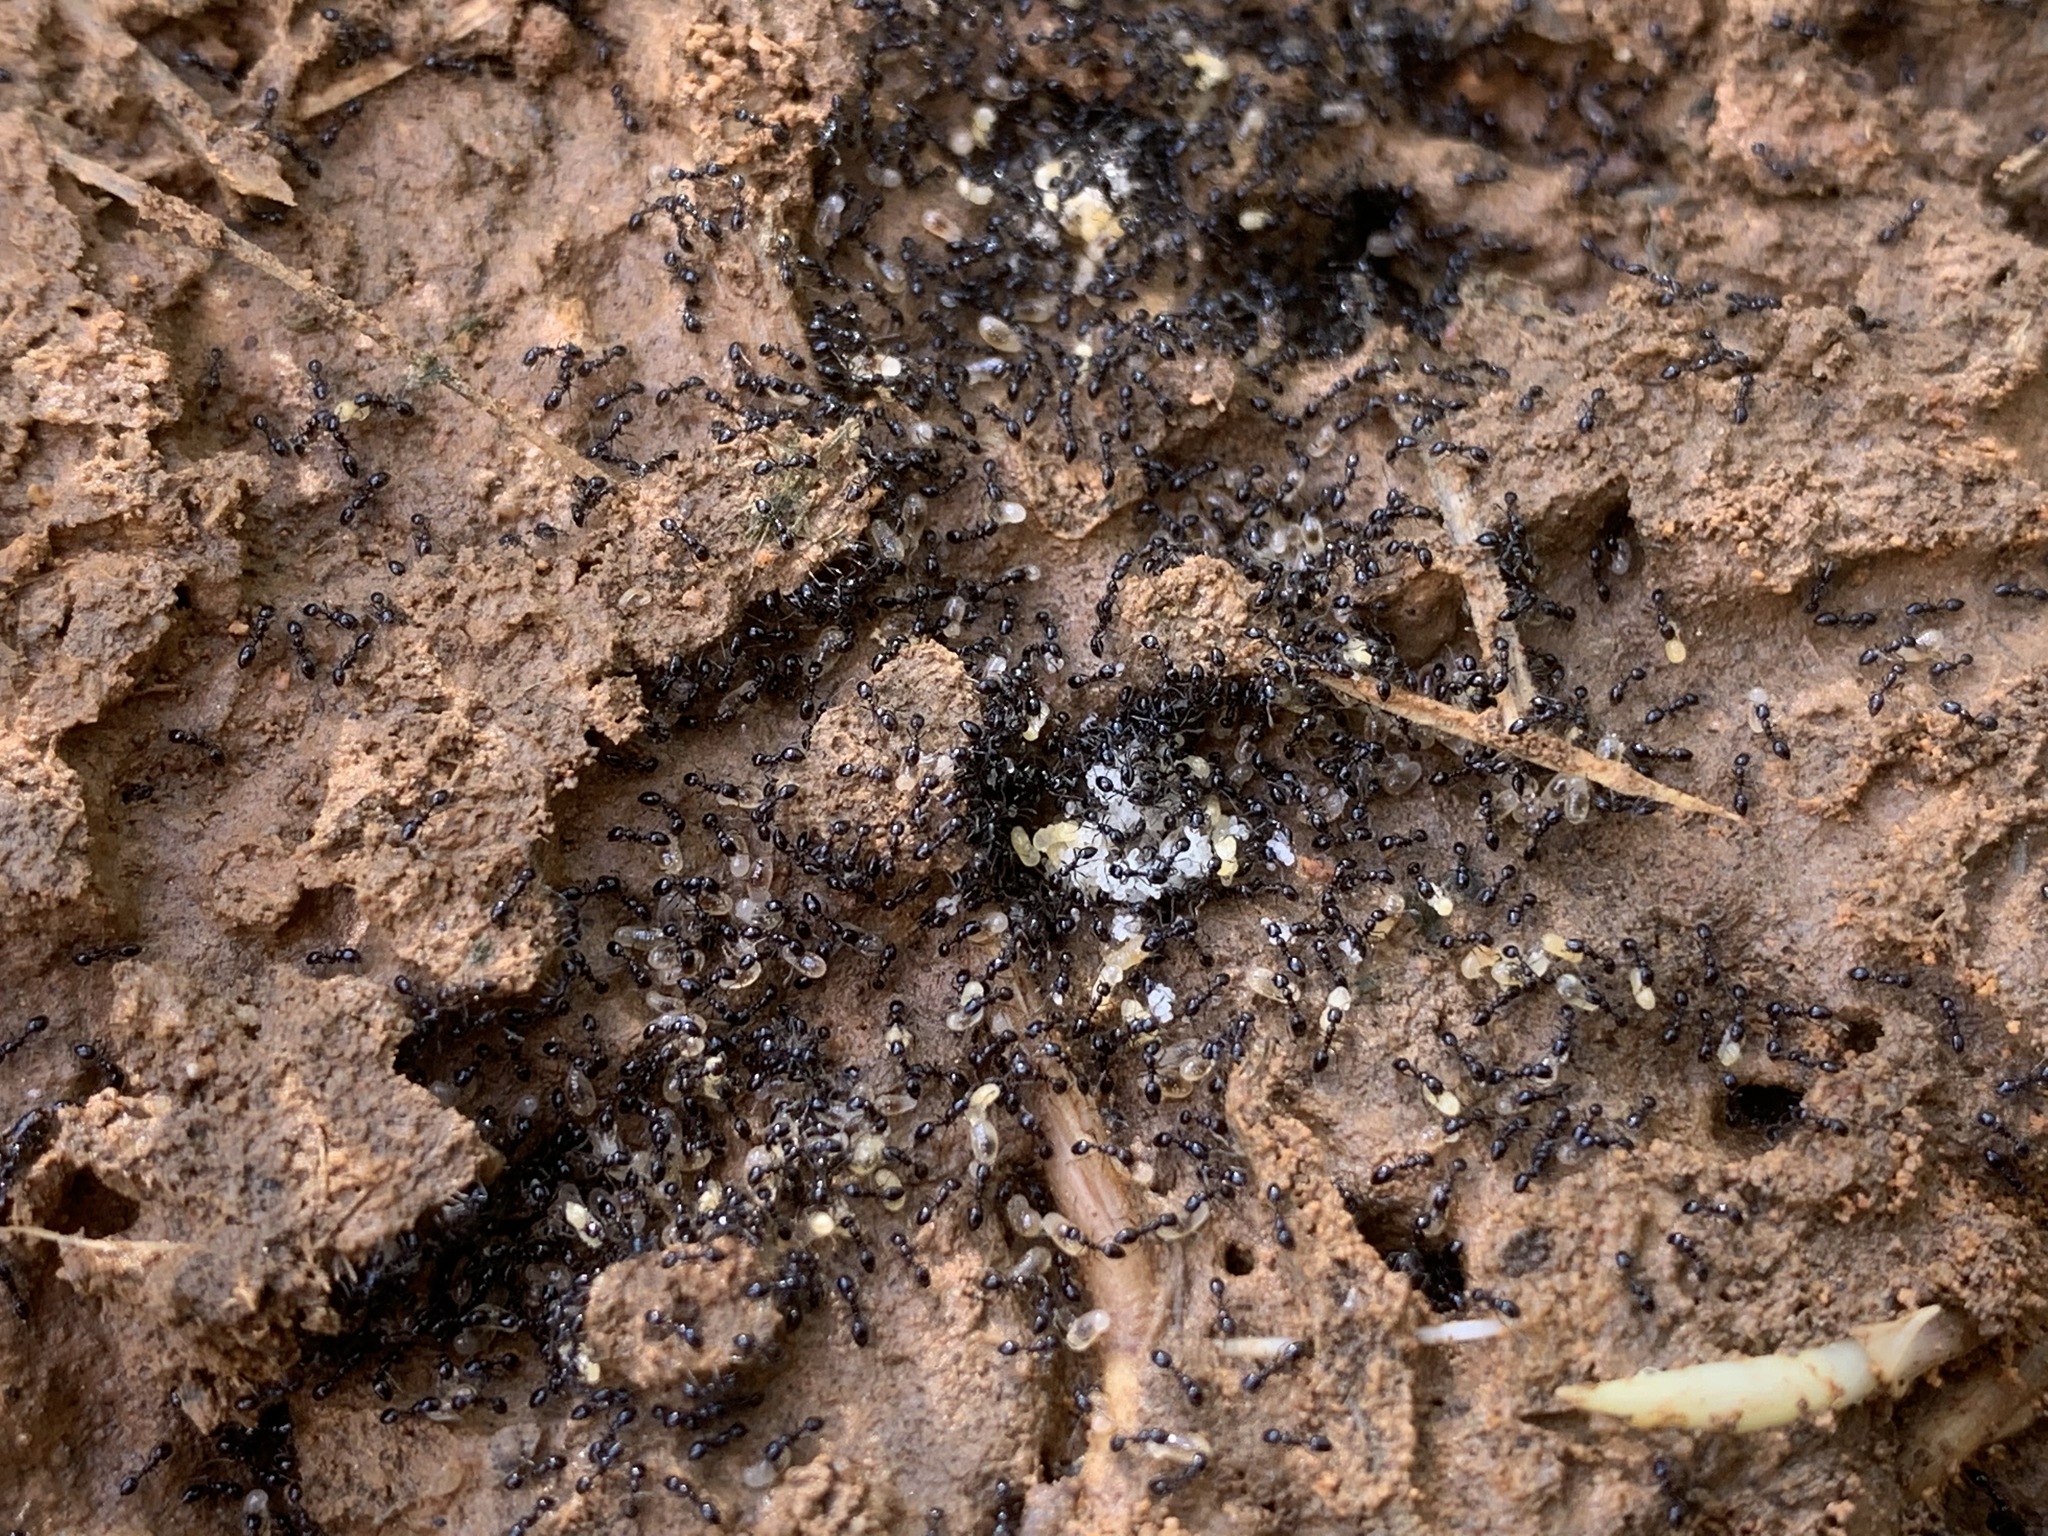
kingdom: Animalia
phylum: Arthropoda
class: Insecta
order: Hymenoptera
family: Formicidae
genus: Monomorium
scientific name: Monomorium minimum
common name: Little black ant
